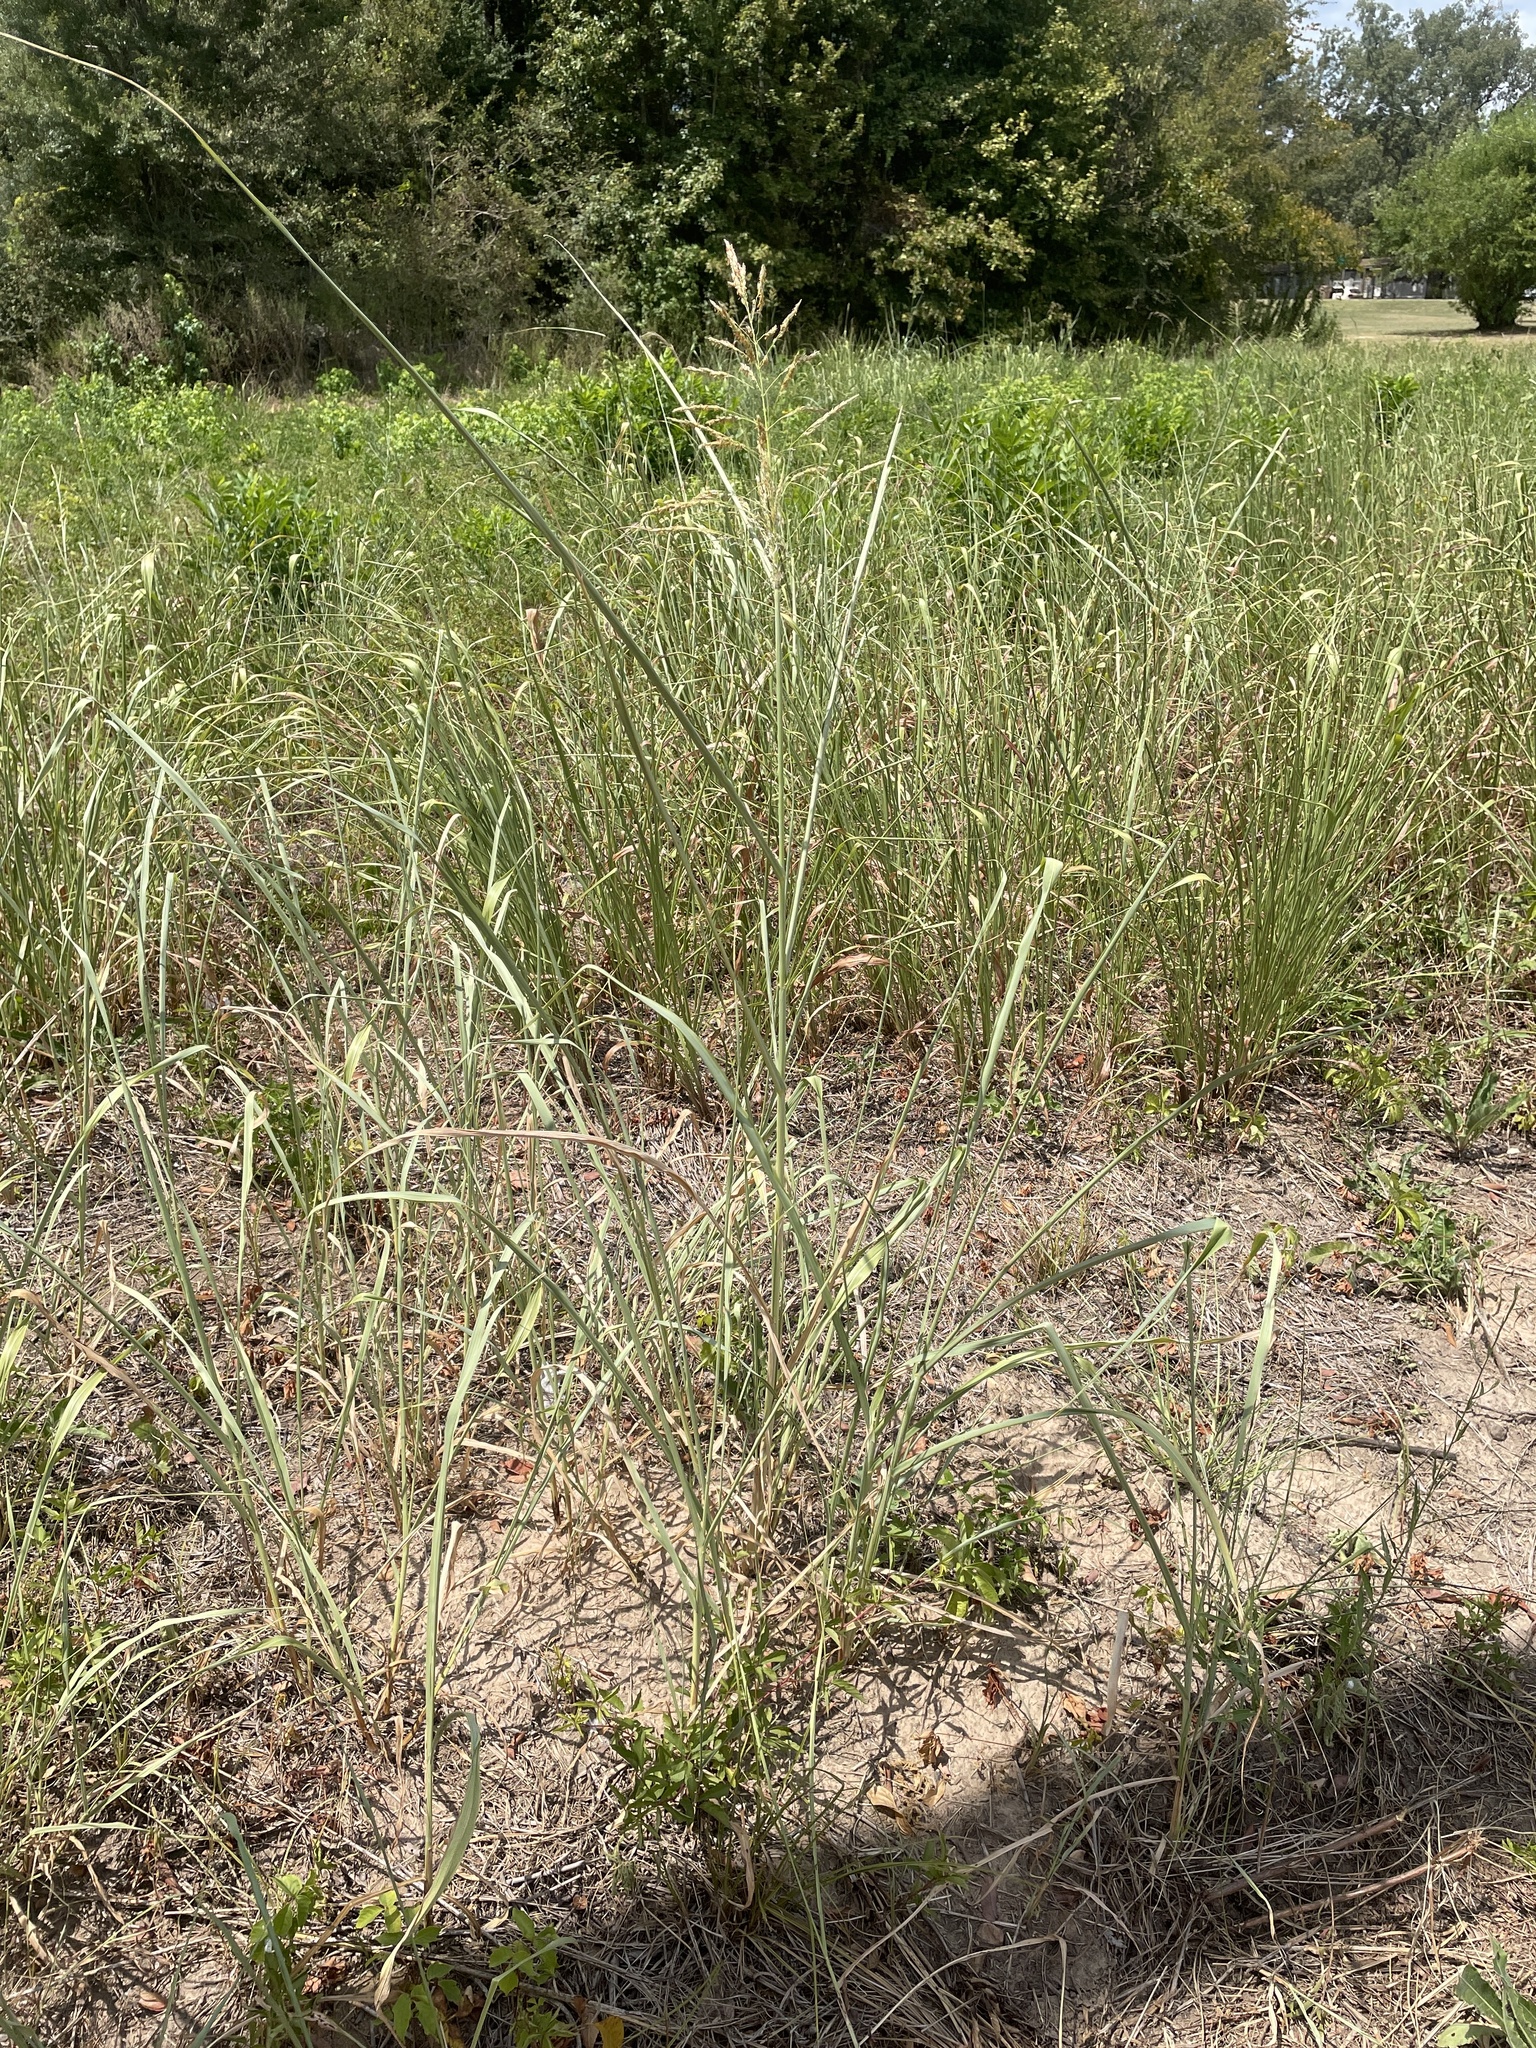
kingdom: Plantae
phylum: Tracheophyta
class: Liliopsida
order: Poales
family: Poaceae
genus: Sorghum
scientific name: Sorghum halepense
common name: Johnson-grass
